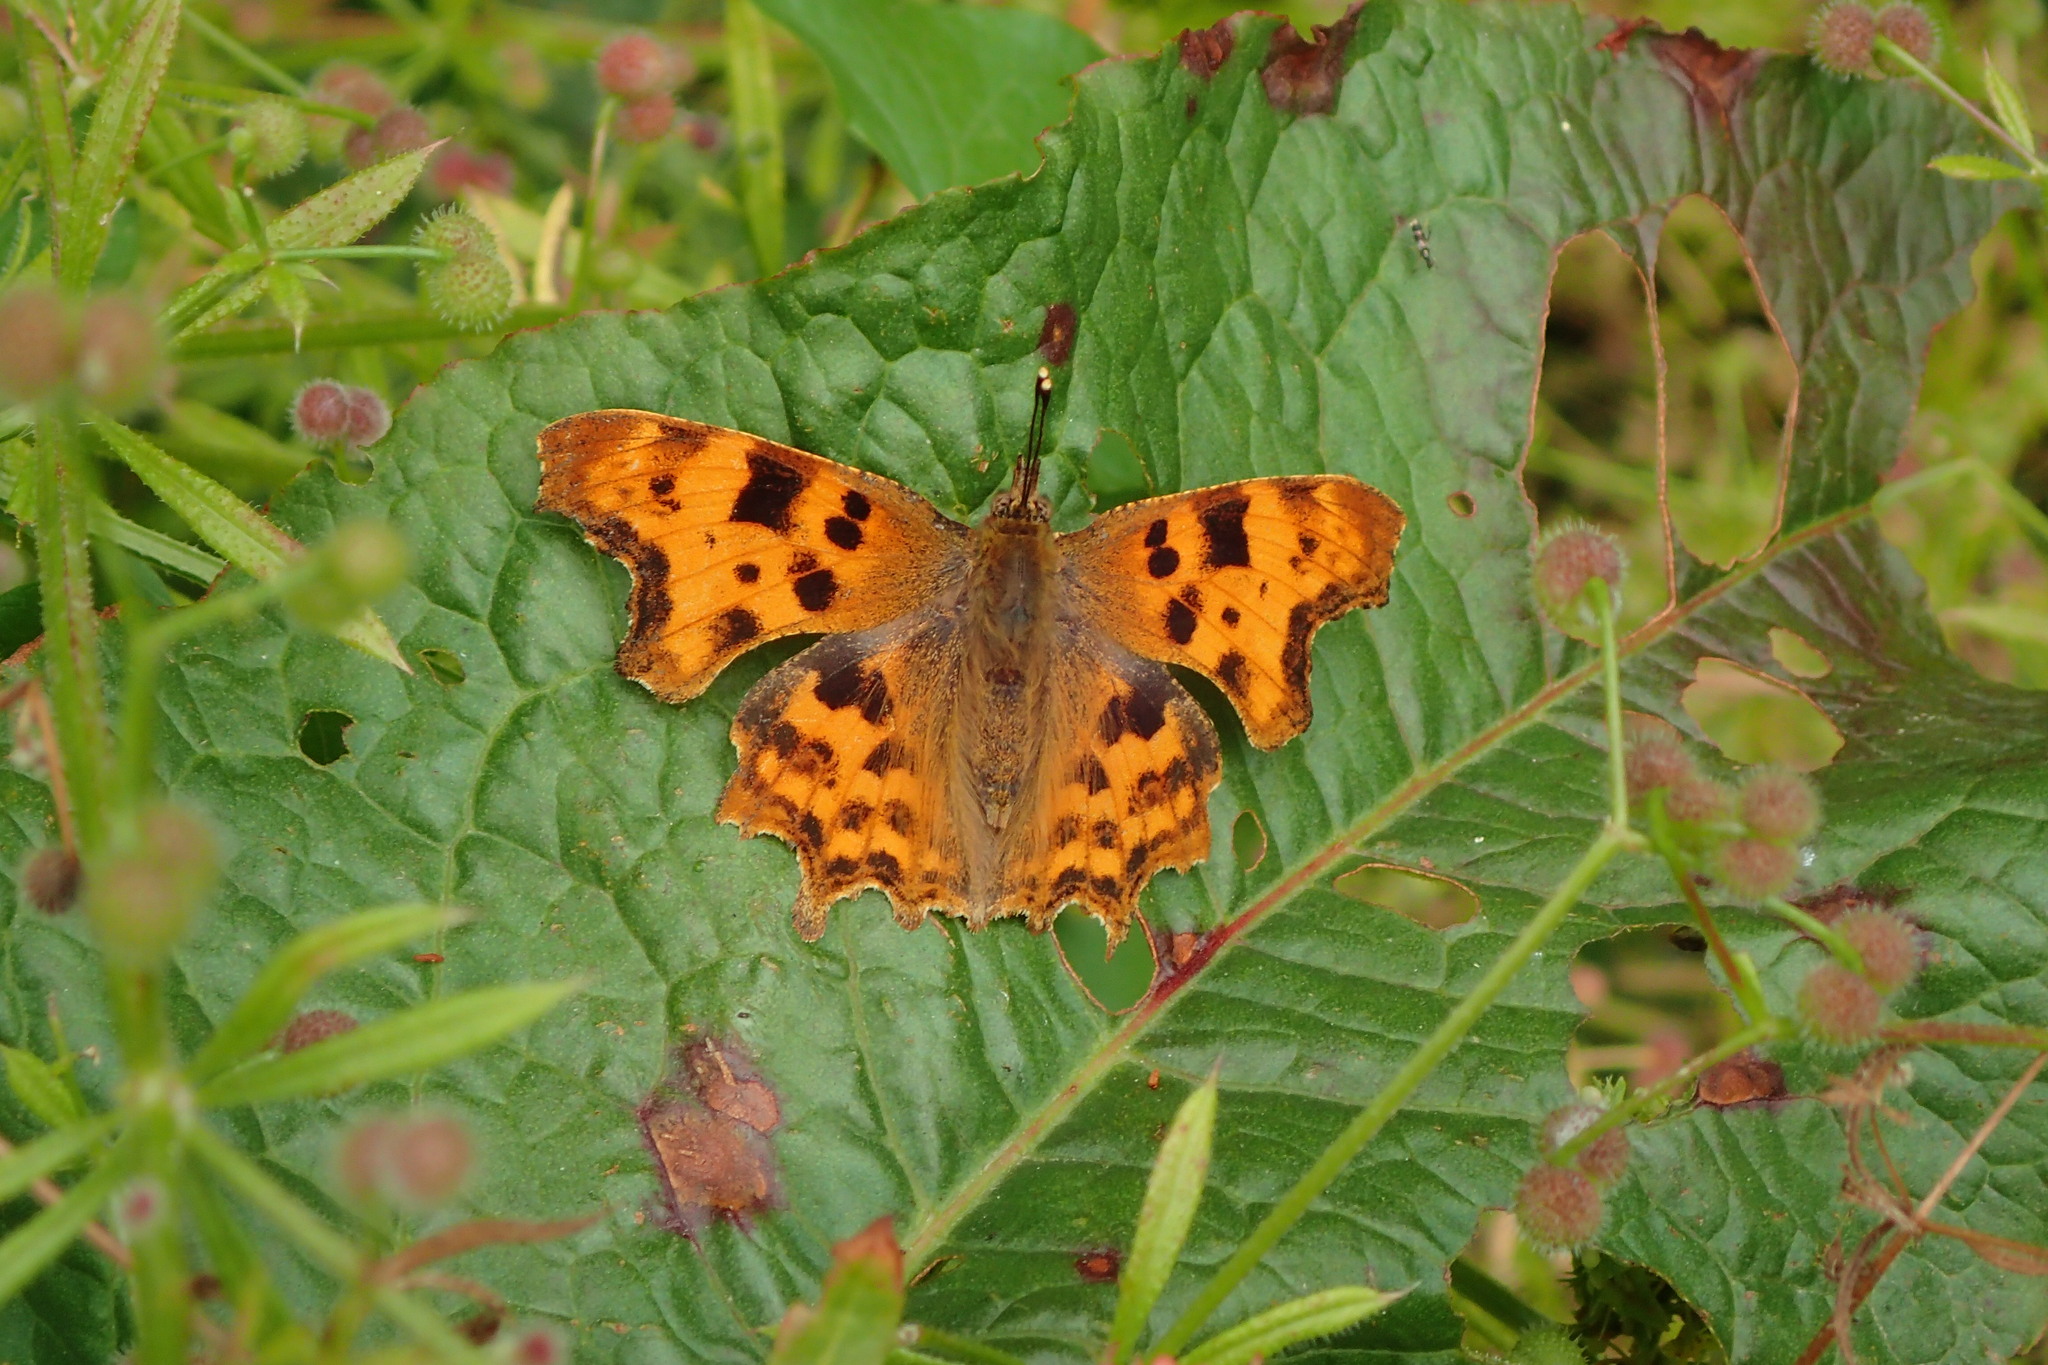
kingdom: Animalia
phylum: Arthropoda
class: Insecta
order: Lepidoptera
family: Nymphalidae
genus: Polygonia
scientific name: Polygonia c-album
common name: Comma
